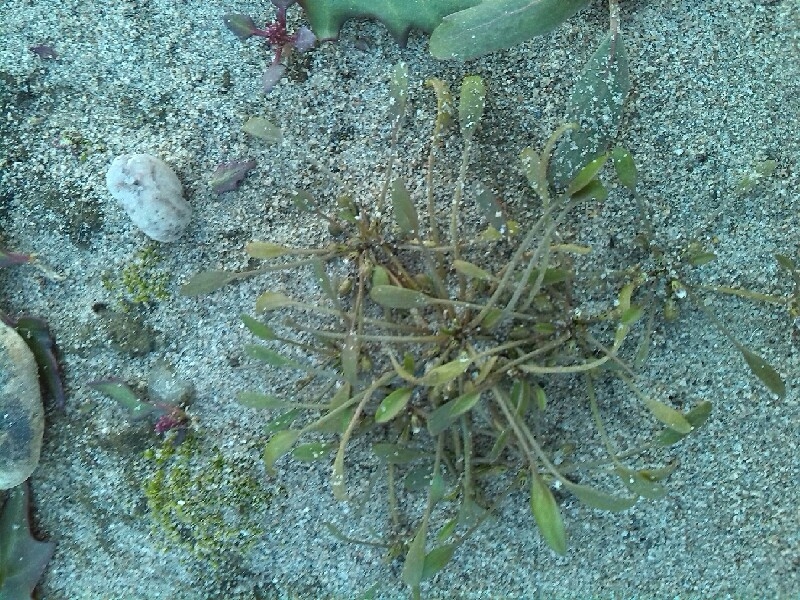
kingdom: Plantae
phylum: Tracheophyta
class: Magnoliopsida
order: Lamiales
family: Scrophulariaceae
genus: Limosella
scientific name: Limosella aquatica
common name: Mudwort
